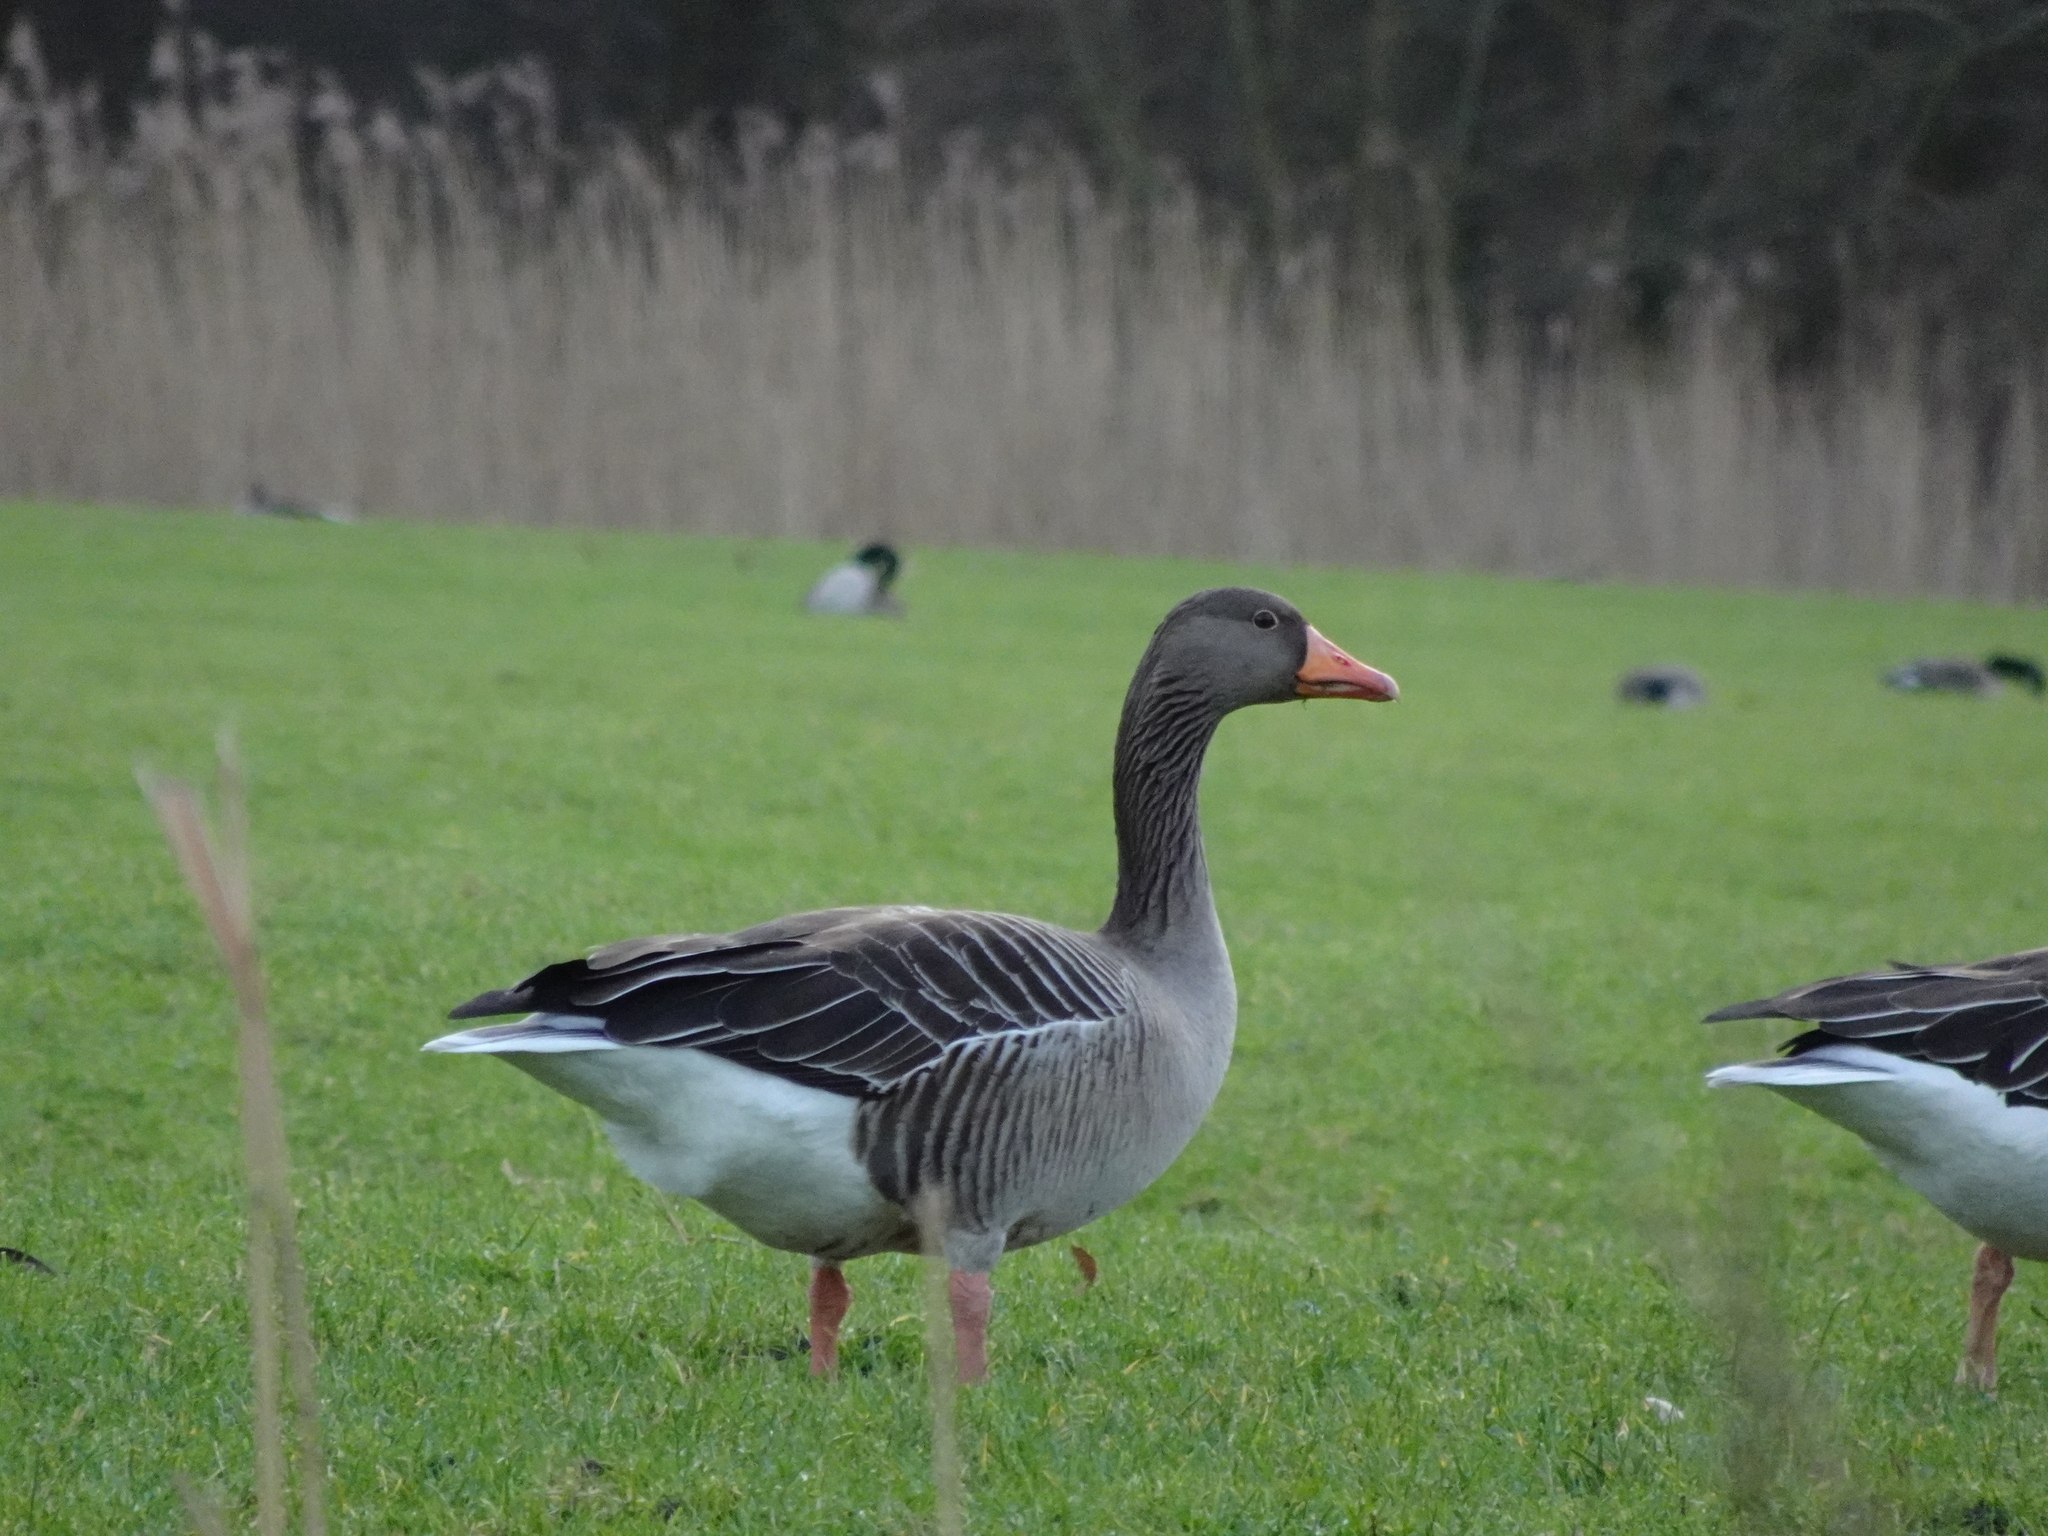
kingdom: Animalia
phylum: Chordata
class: Aves
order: Anseriformes
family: Anatidae
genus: Anser
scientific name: Anser anser
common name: Greylag goose
